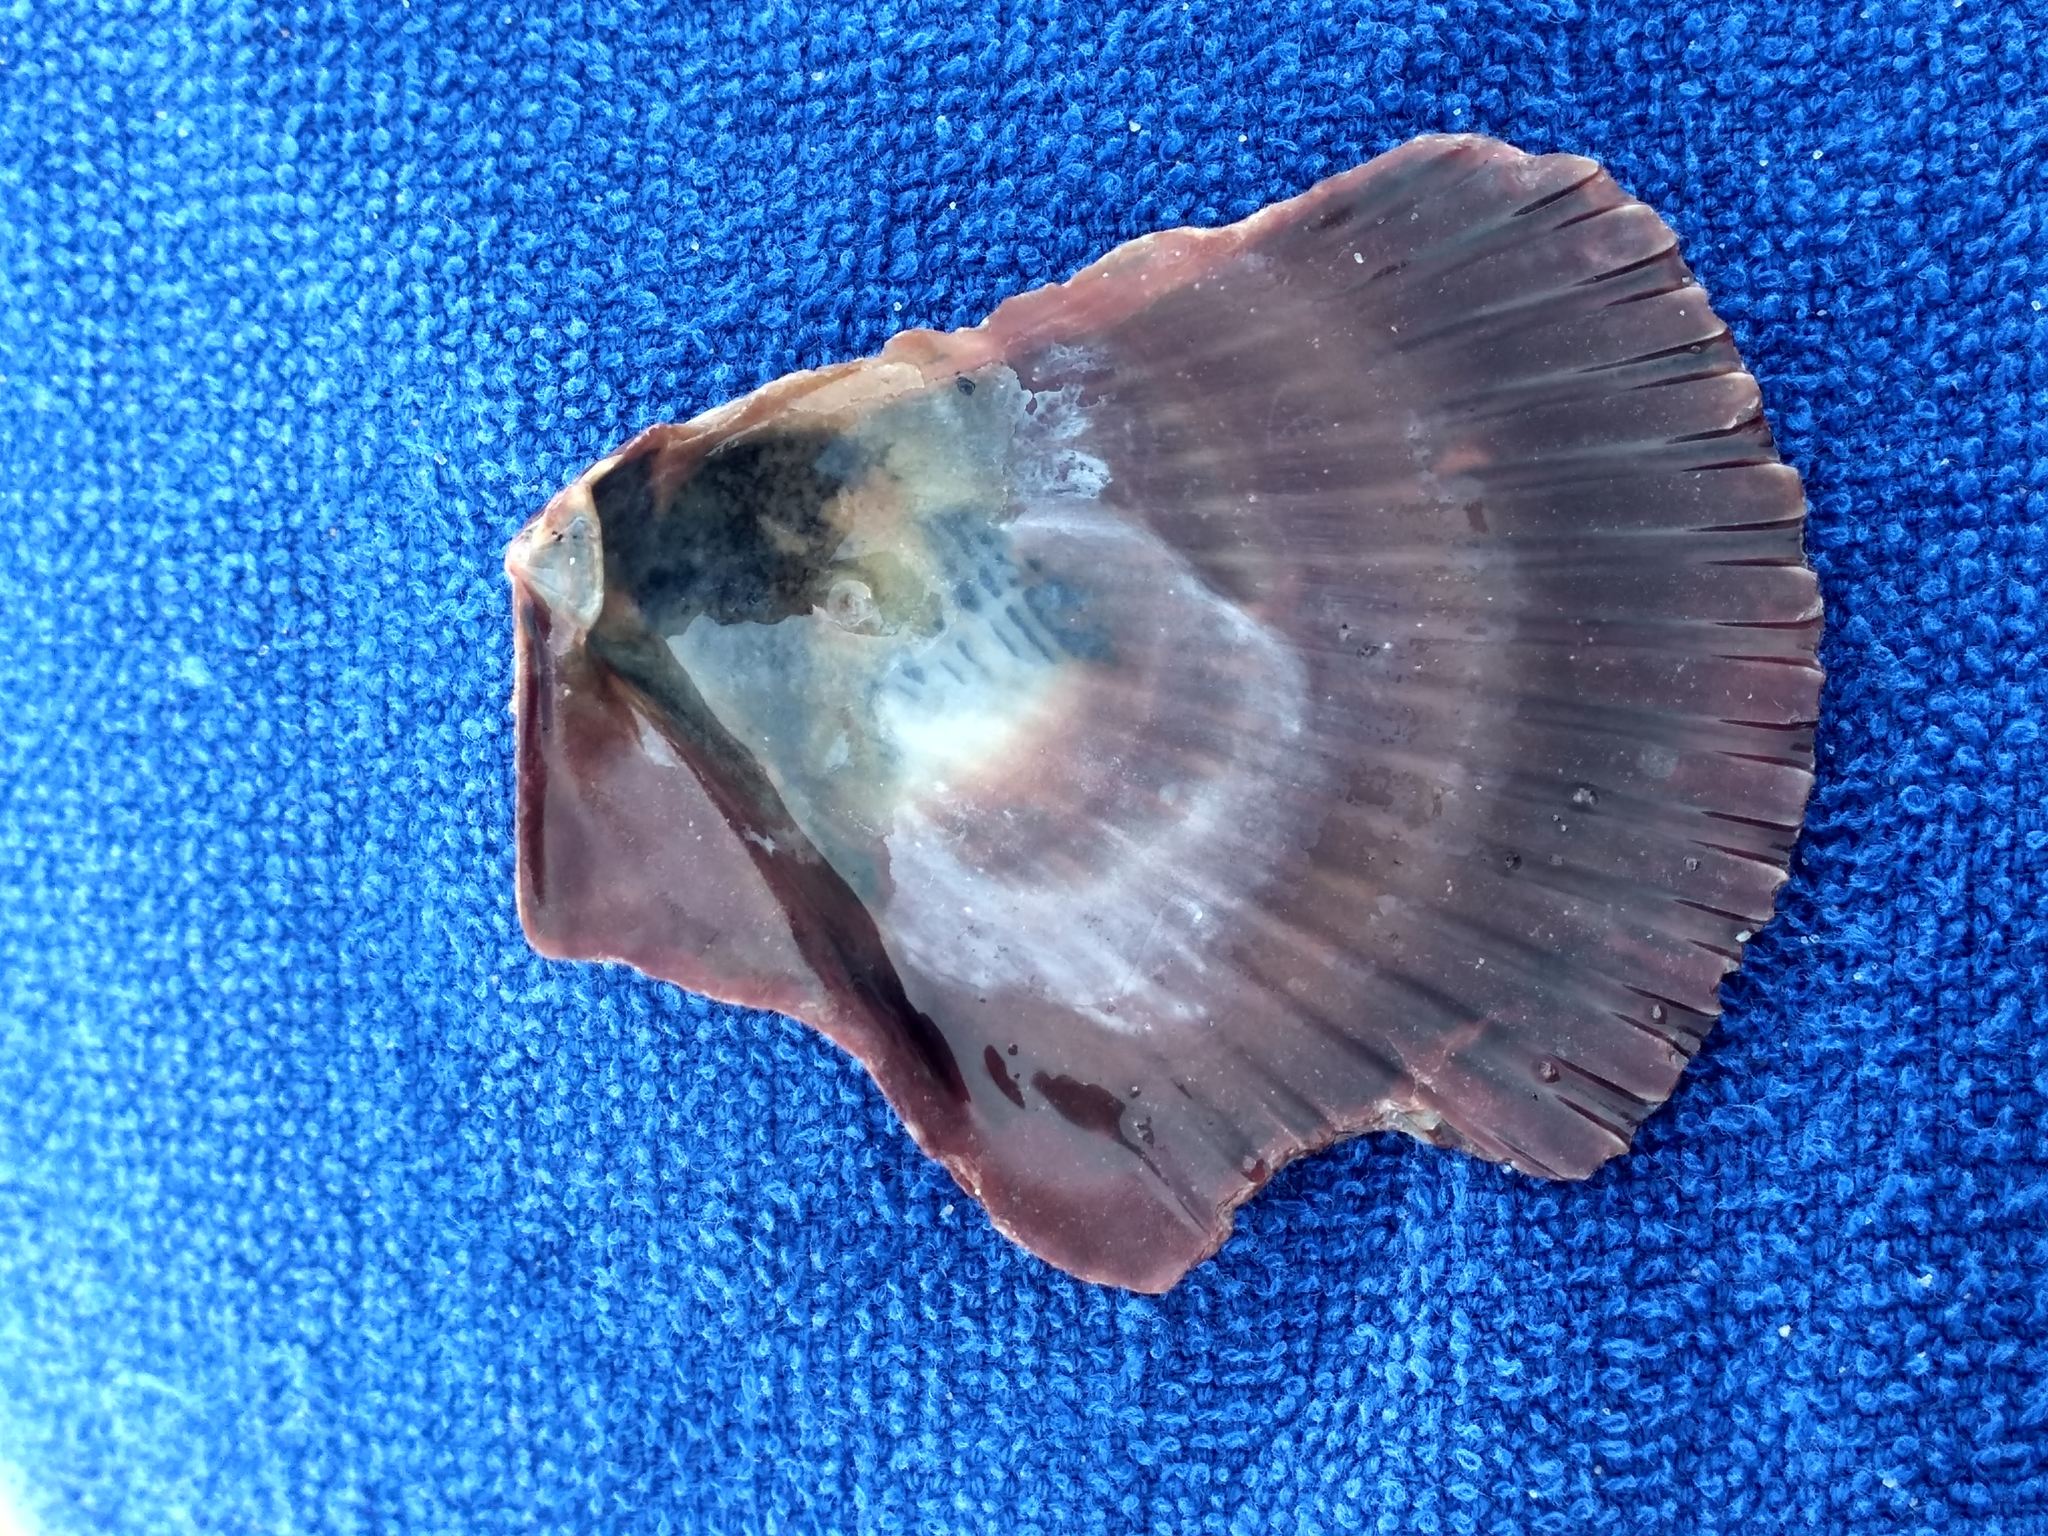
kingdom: Animalia
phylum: Mollusca
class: Bivalvia
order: Pectinida
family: Pectinidae
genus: Argopecten
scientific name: Argopecten ventricosus
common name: Catarina scallop
